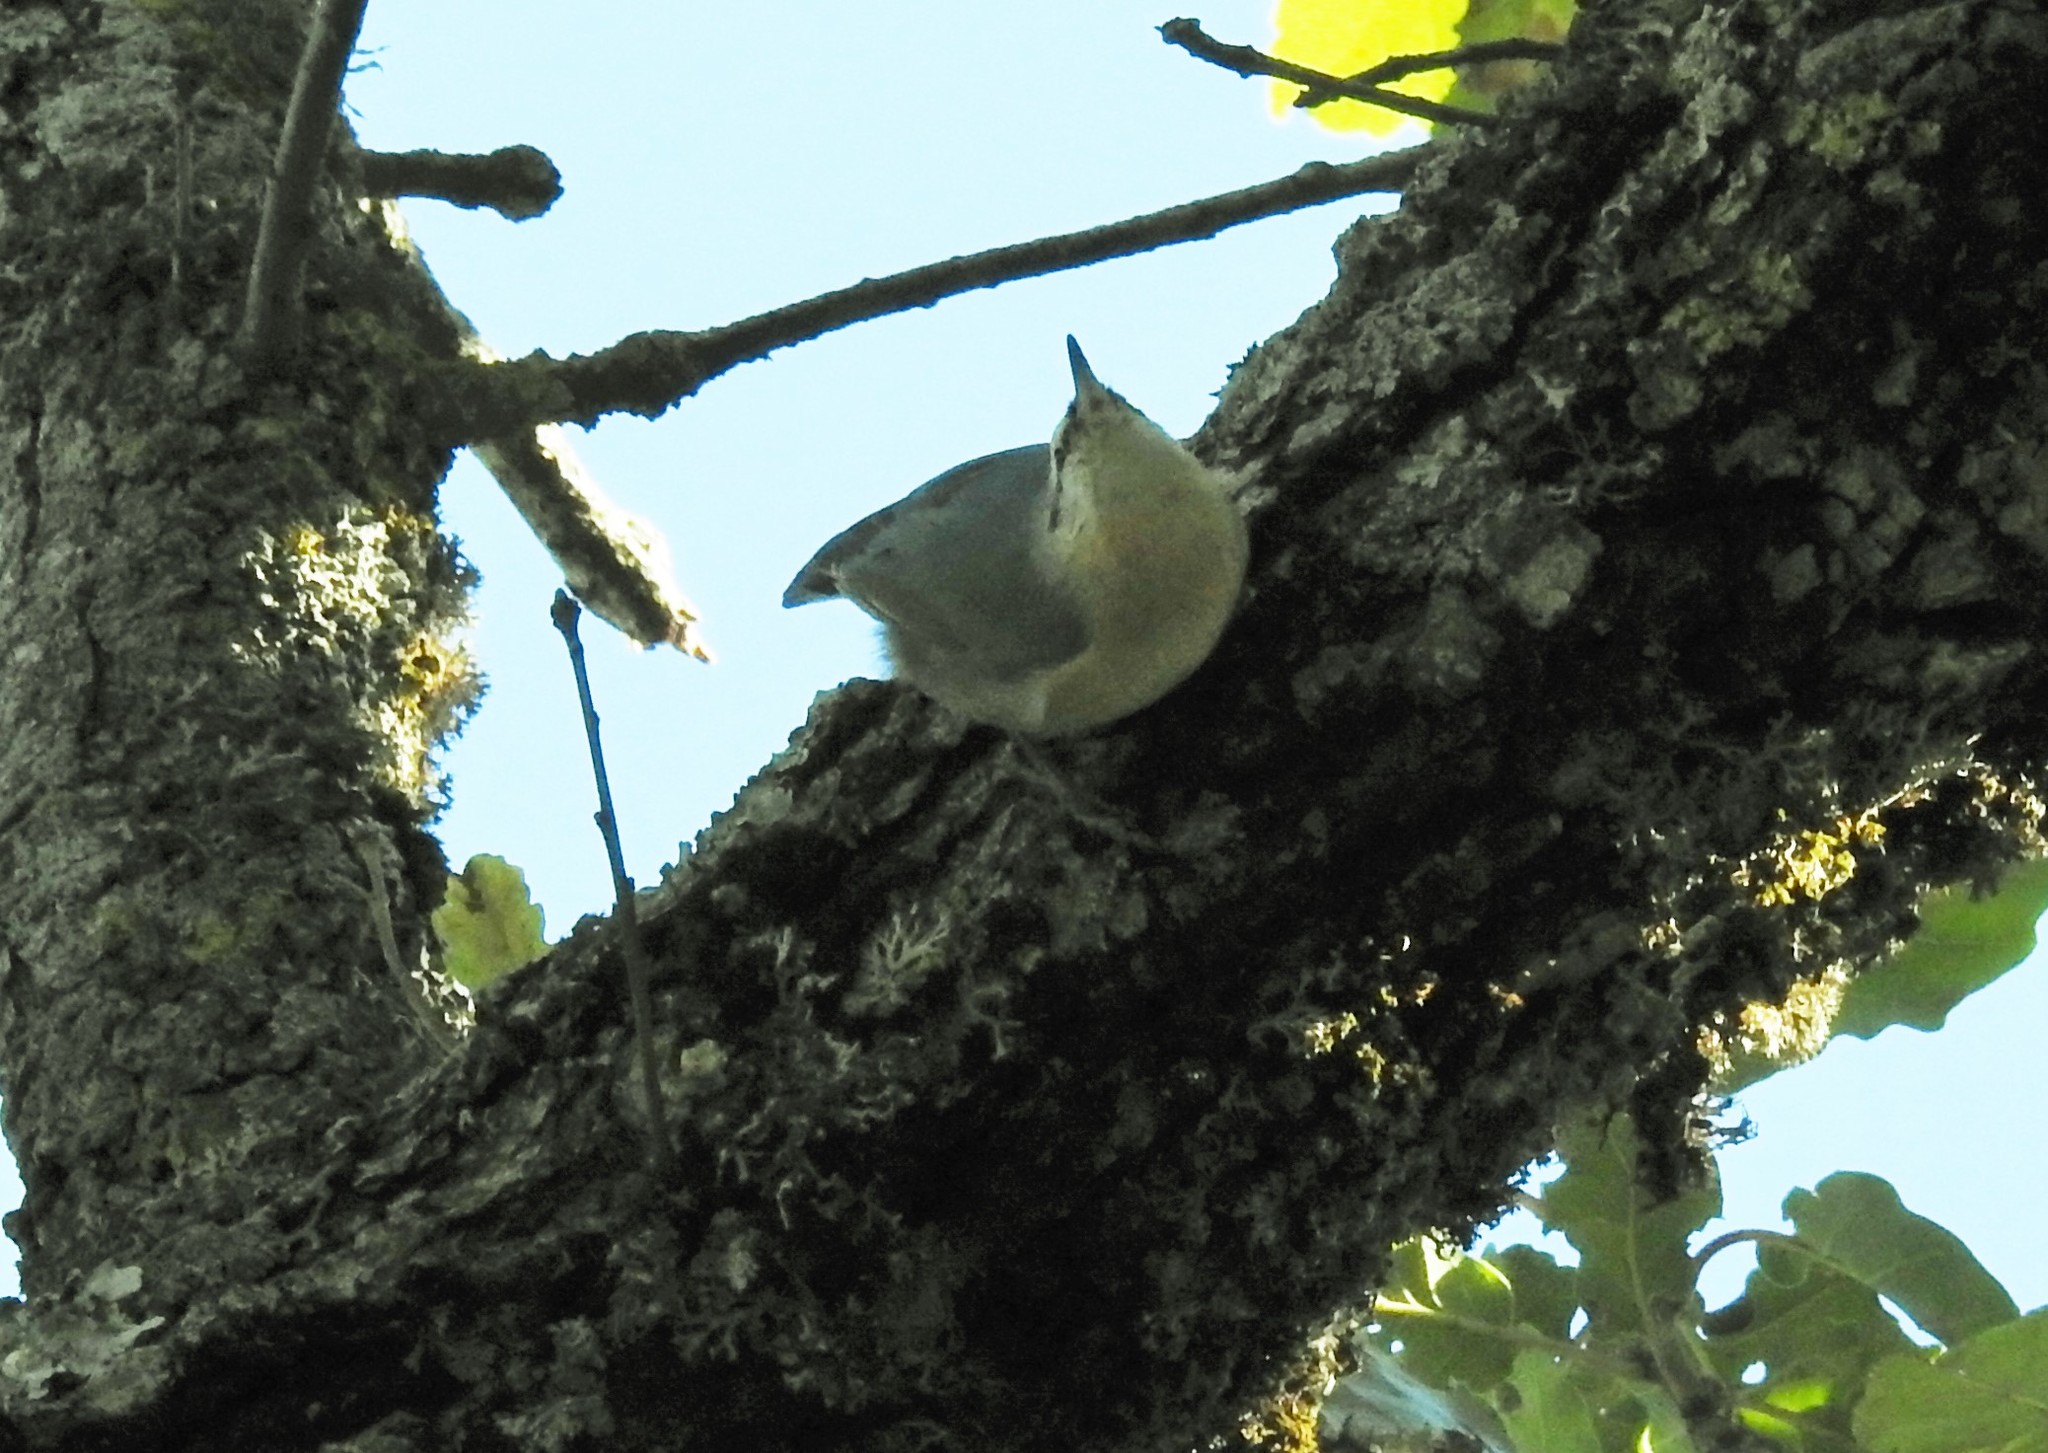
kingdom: Animalia
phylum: Chordata
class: Aves
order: Passeriformes
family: Sittidae
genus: Sitta
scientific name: Sitta ledanti
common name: Algerian nuthatch
